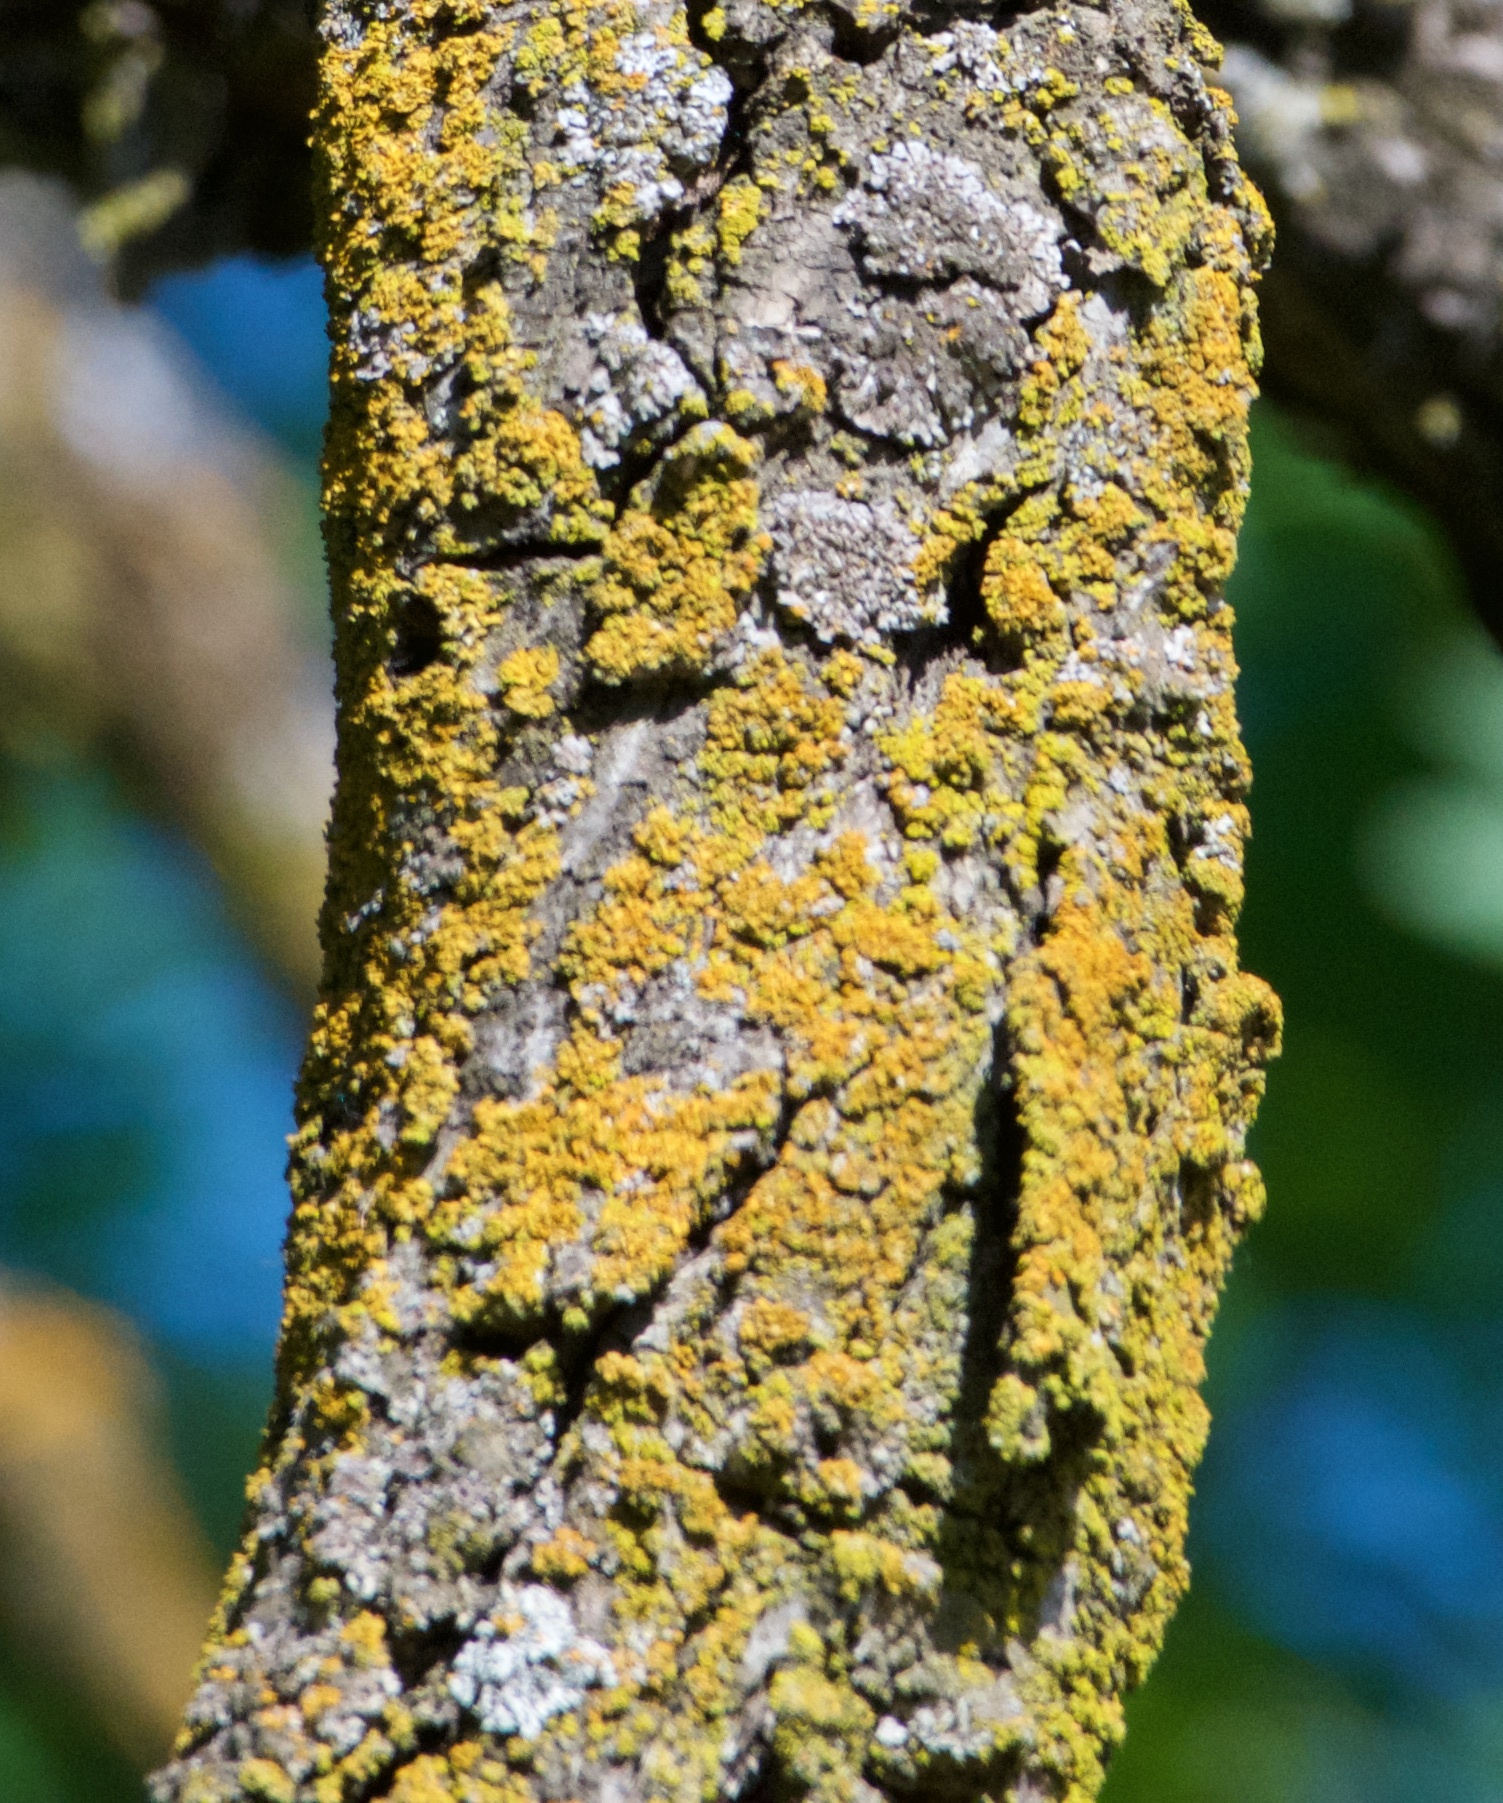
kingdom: Fungi
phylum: Ascomycota
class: Candelariomycetes
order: Candelariales
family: Candelariaceae
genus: Candelaria
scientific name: Candelaria concolor
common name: Candleflame lichen
